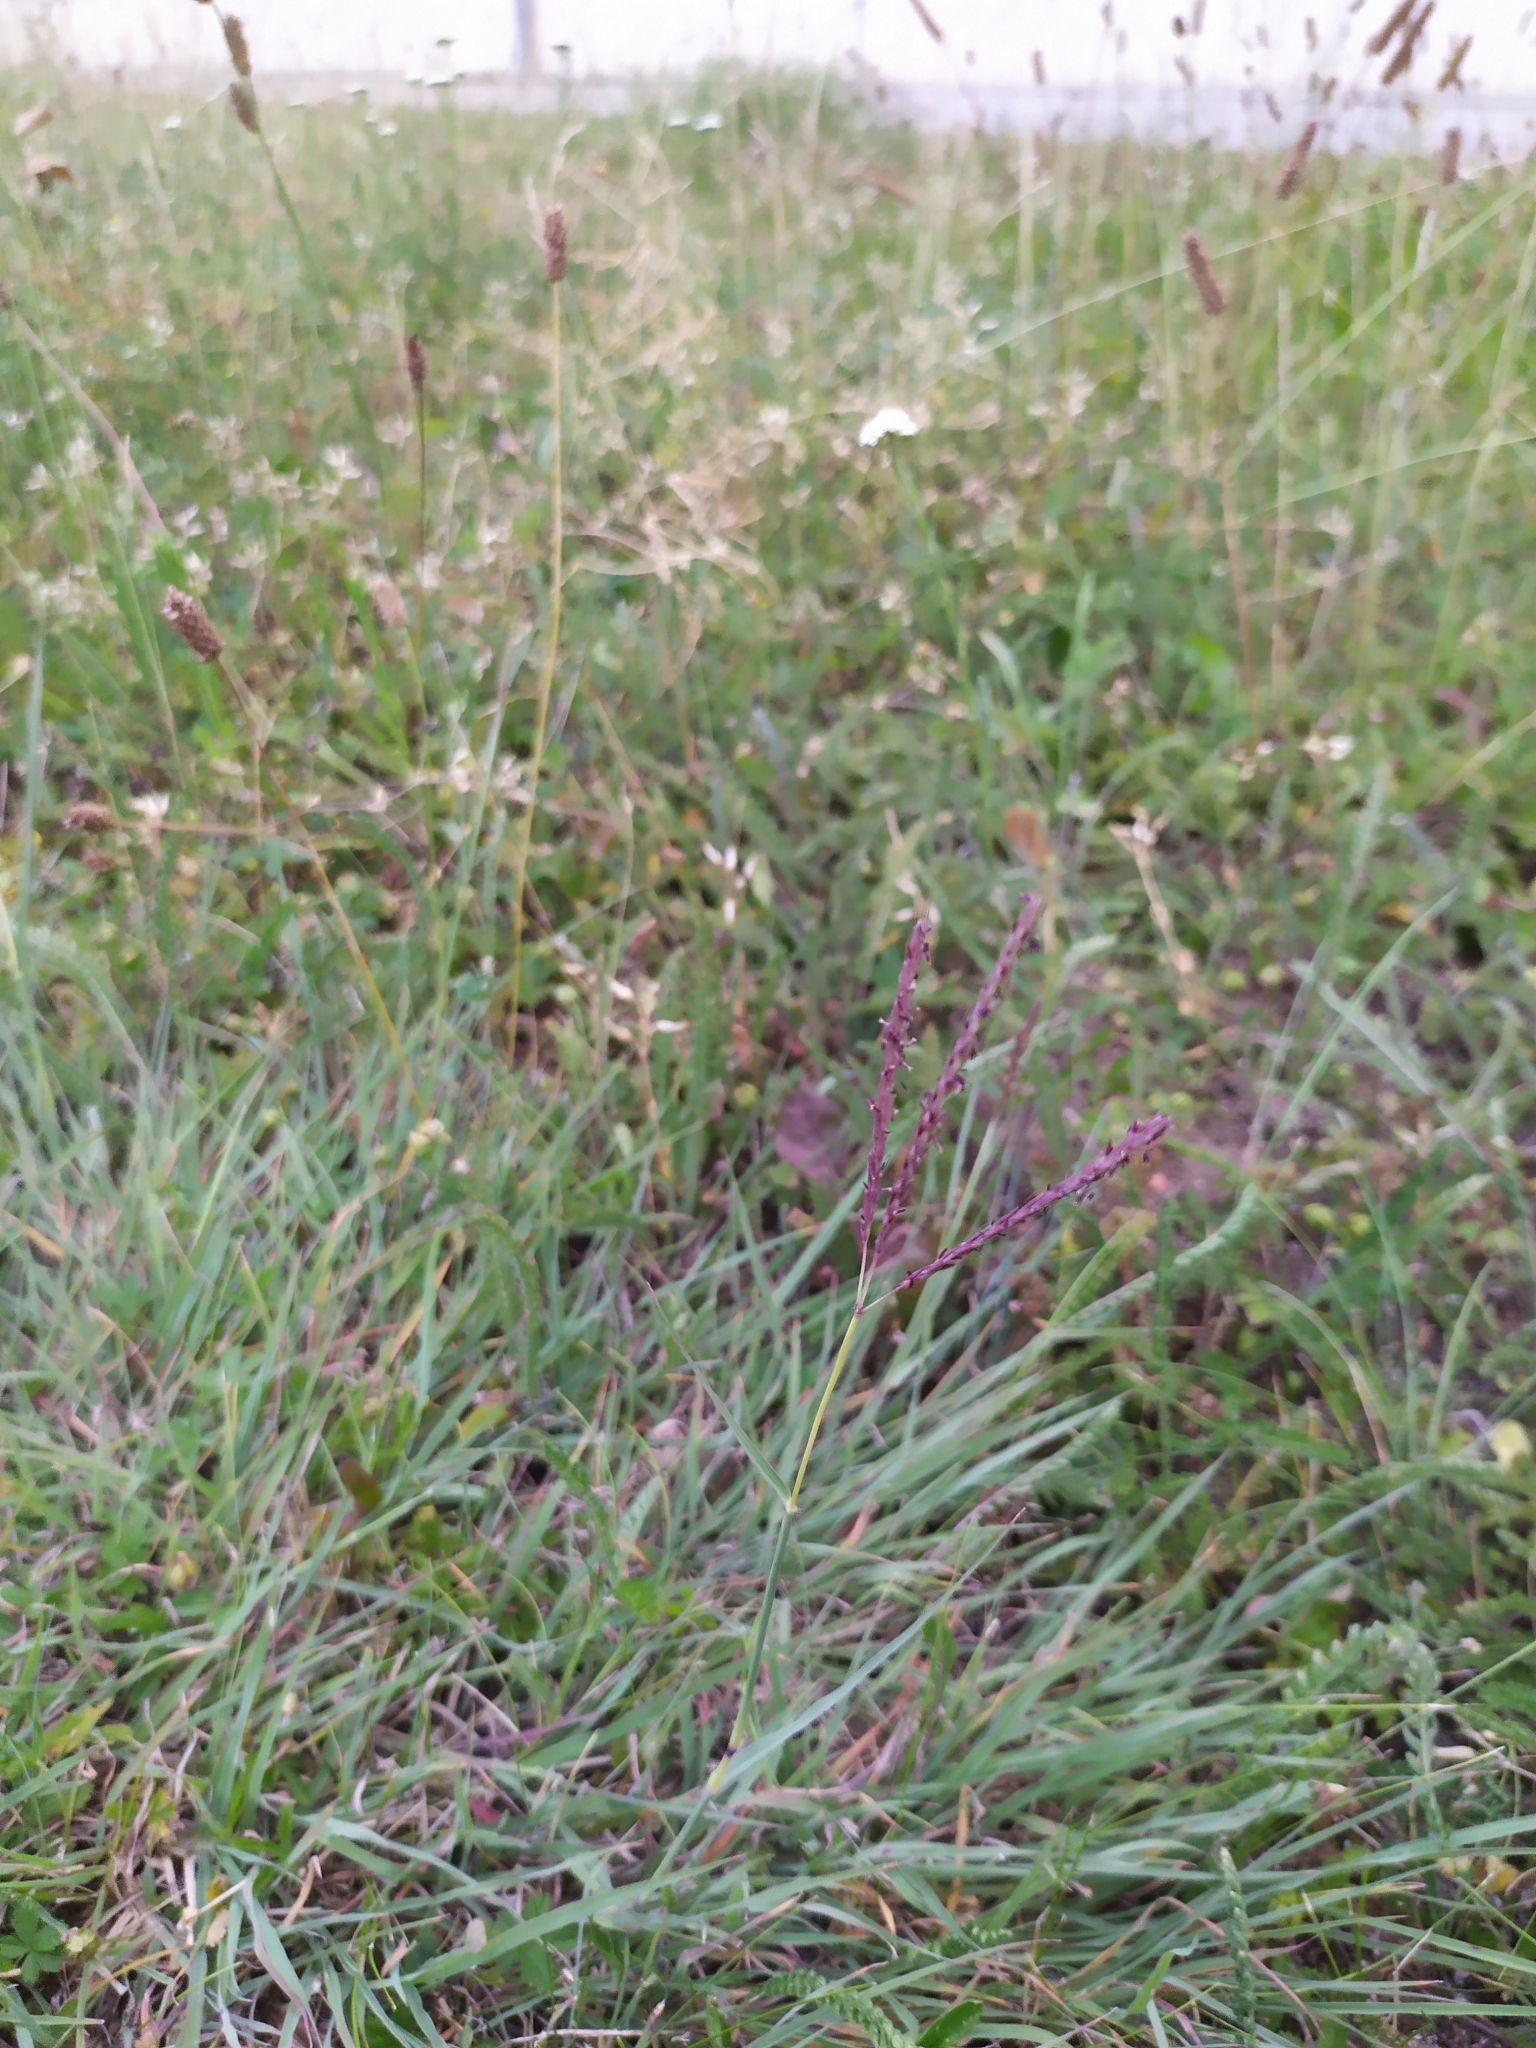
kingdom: Plantae
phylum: Tracheophyta
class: Liliopsida
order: Poales
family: Poaceae
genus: Cynodon
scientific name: Cynodon dactylon
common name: Bermuda grass
